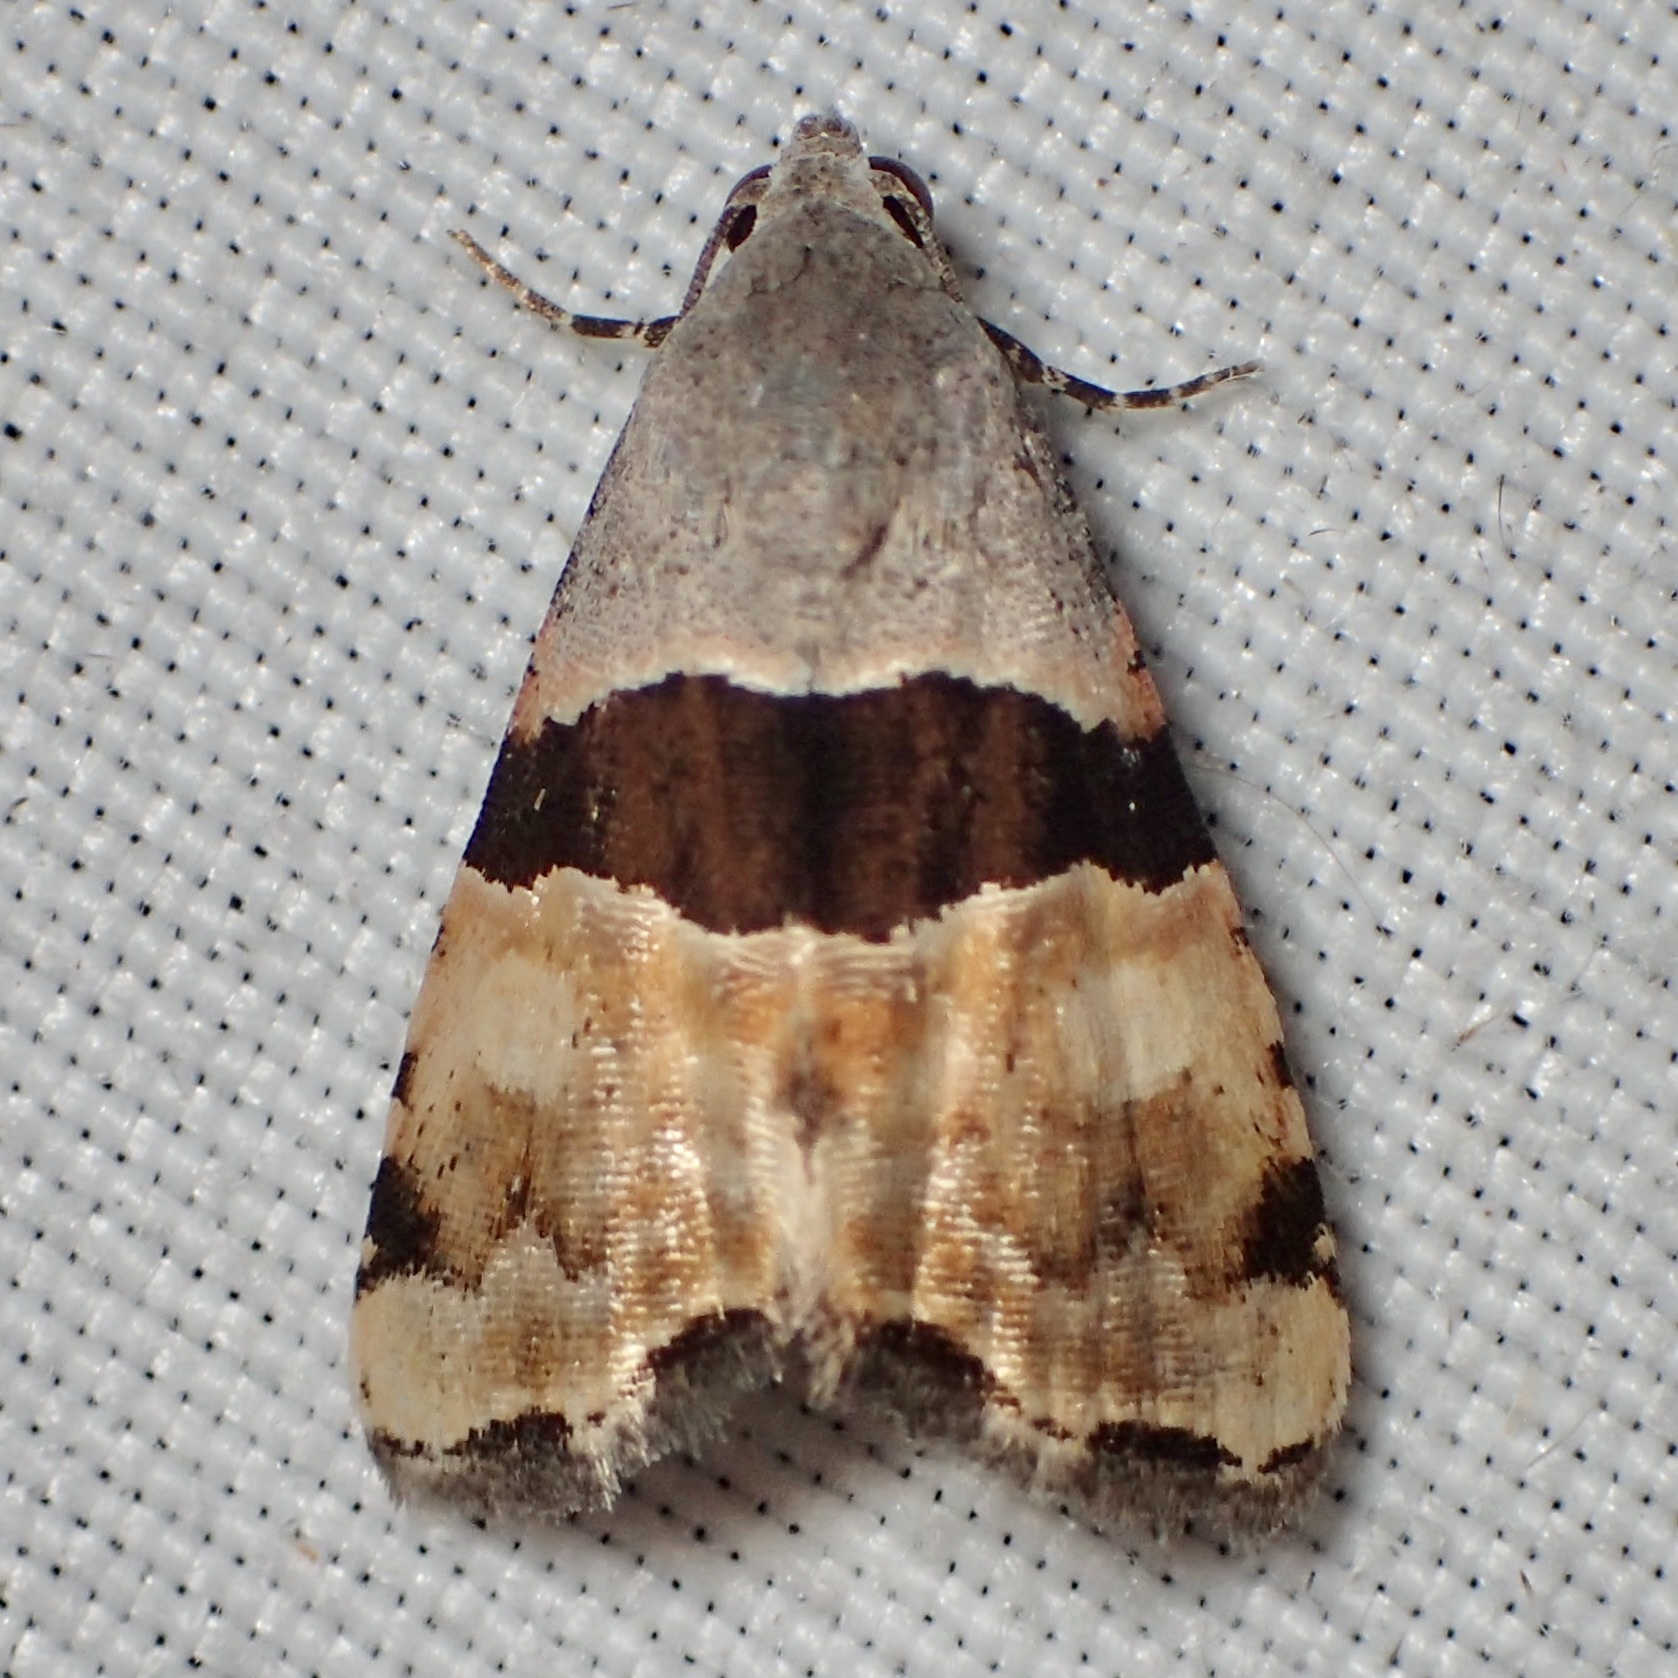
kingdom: Animalia
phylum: Arthropoda
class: Insecta
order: Lepidoptera
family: Noctuidae
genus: Cobubatha
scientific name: Cobubatha lixiva
